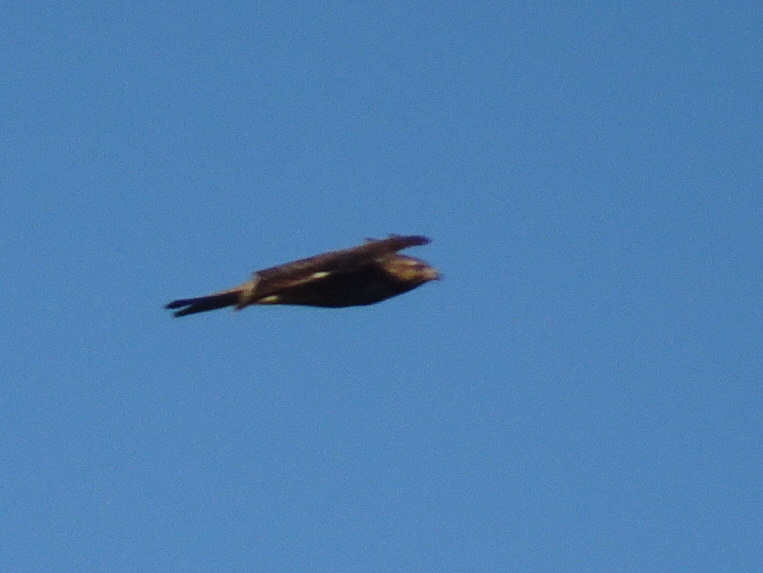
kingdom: Animalia
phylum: Chordata
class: Aves
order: Accipitriformes
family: Accipitridae
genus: Buteo
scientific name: Buteo lineatus
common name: Red-shouldered hawk
